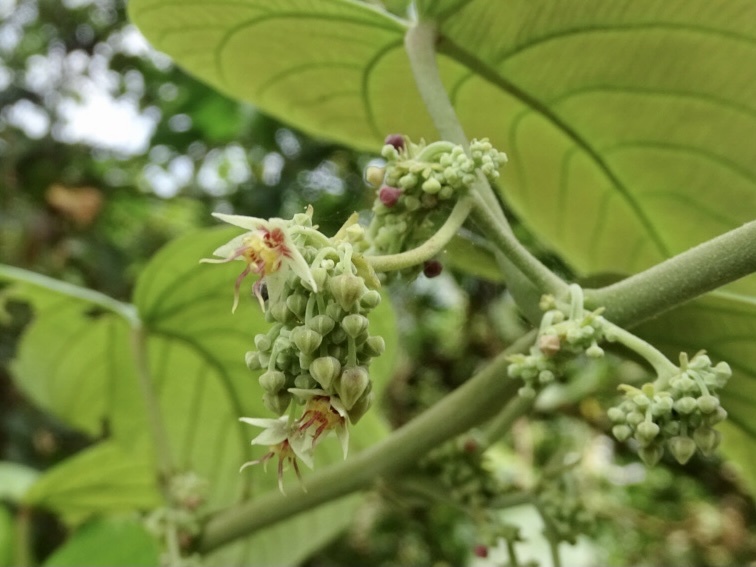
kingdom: Plantae
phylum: Tracheophyta
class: Magnoliopsida
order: Malvales
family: Malvaceae
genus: Byttneria
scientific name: Byttneria grandifolia
